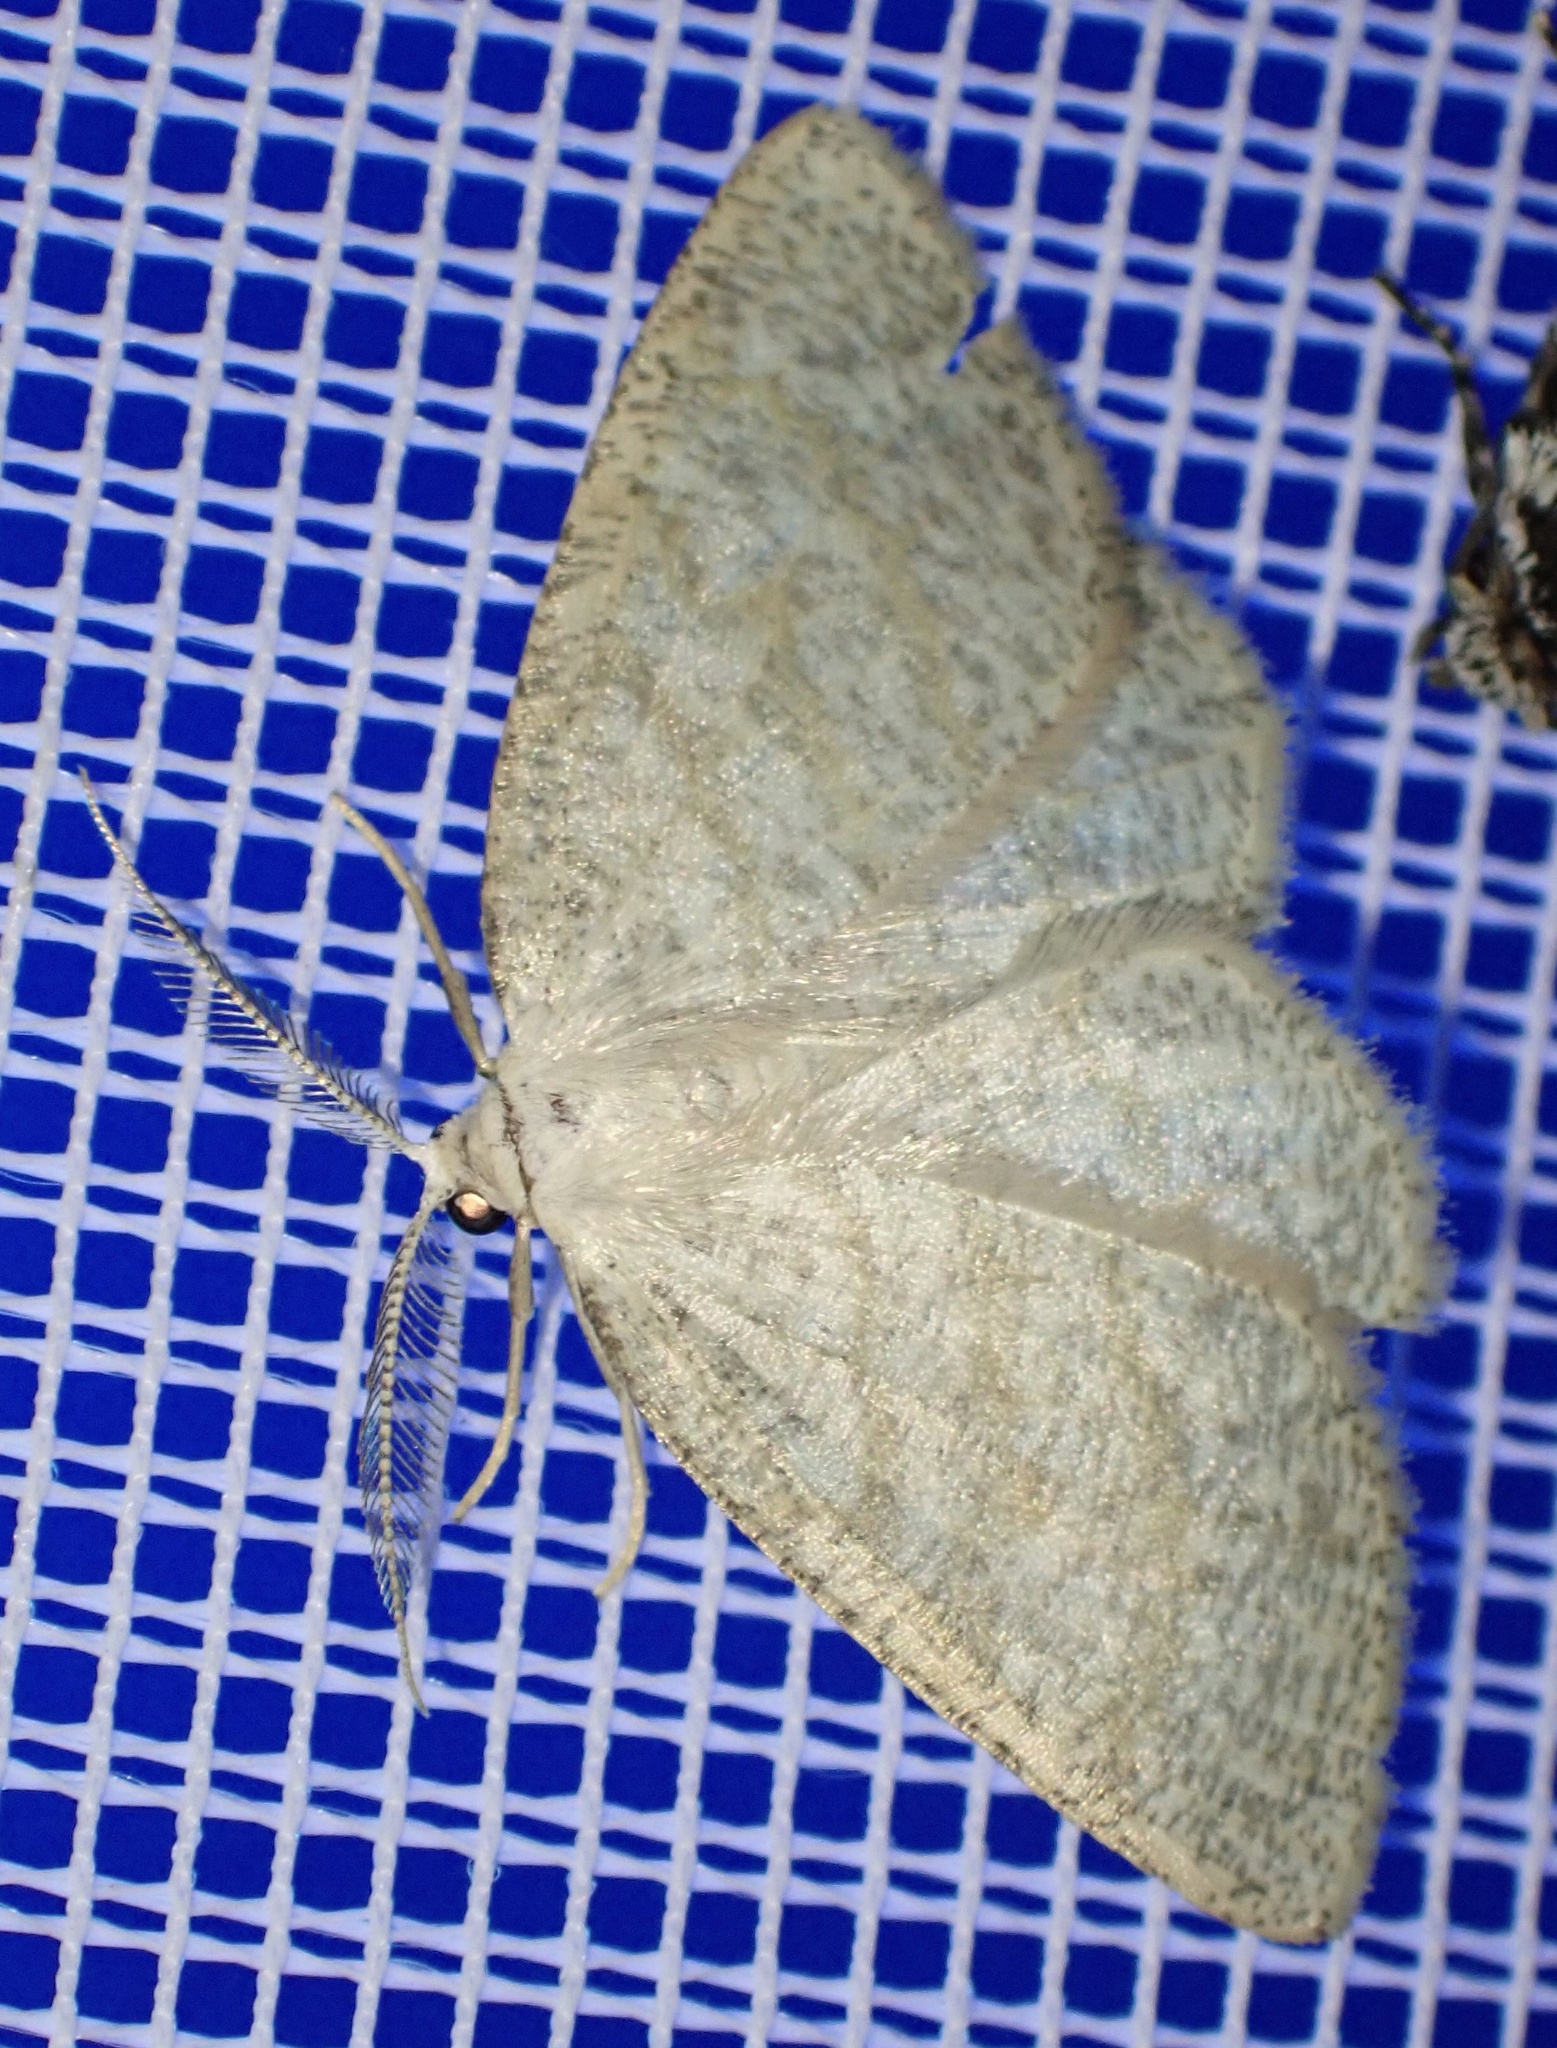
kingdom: Animalia
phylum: Arthropoda
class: Insecta
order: Lepidoptera
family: Geometridae
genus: Cabera
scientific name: Cabera exanthemata
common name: Common wave
